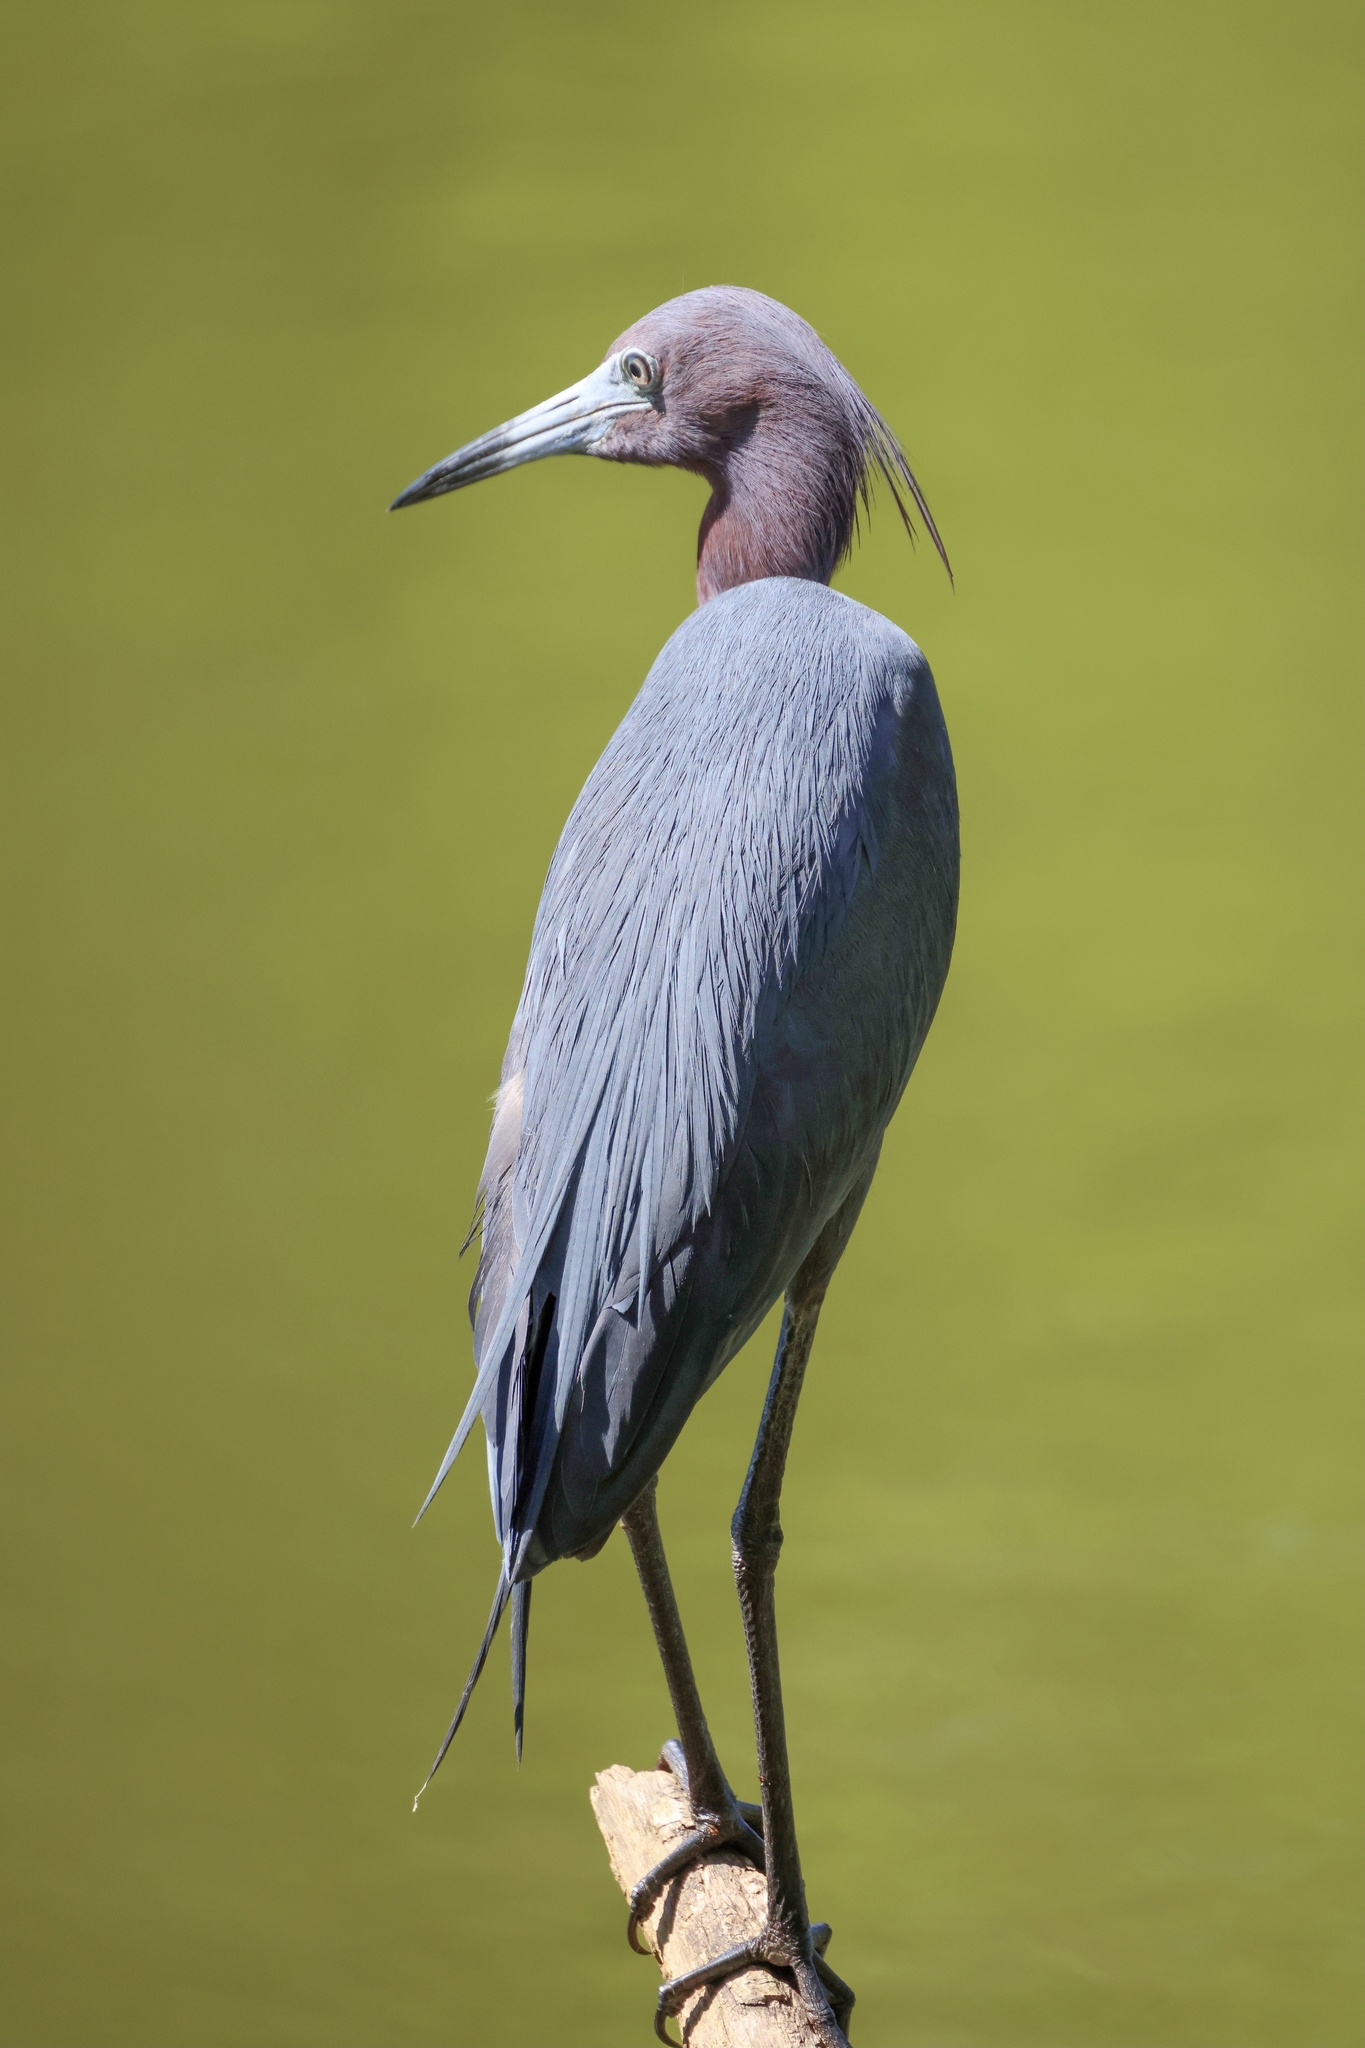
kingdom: Animalia
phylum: Chordata
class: Aves
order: Pelecaniformes
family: Ardeidae
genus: Egretta
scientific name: Egretta caerulea
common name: Little blue heron
